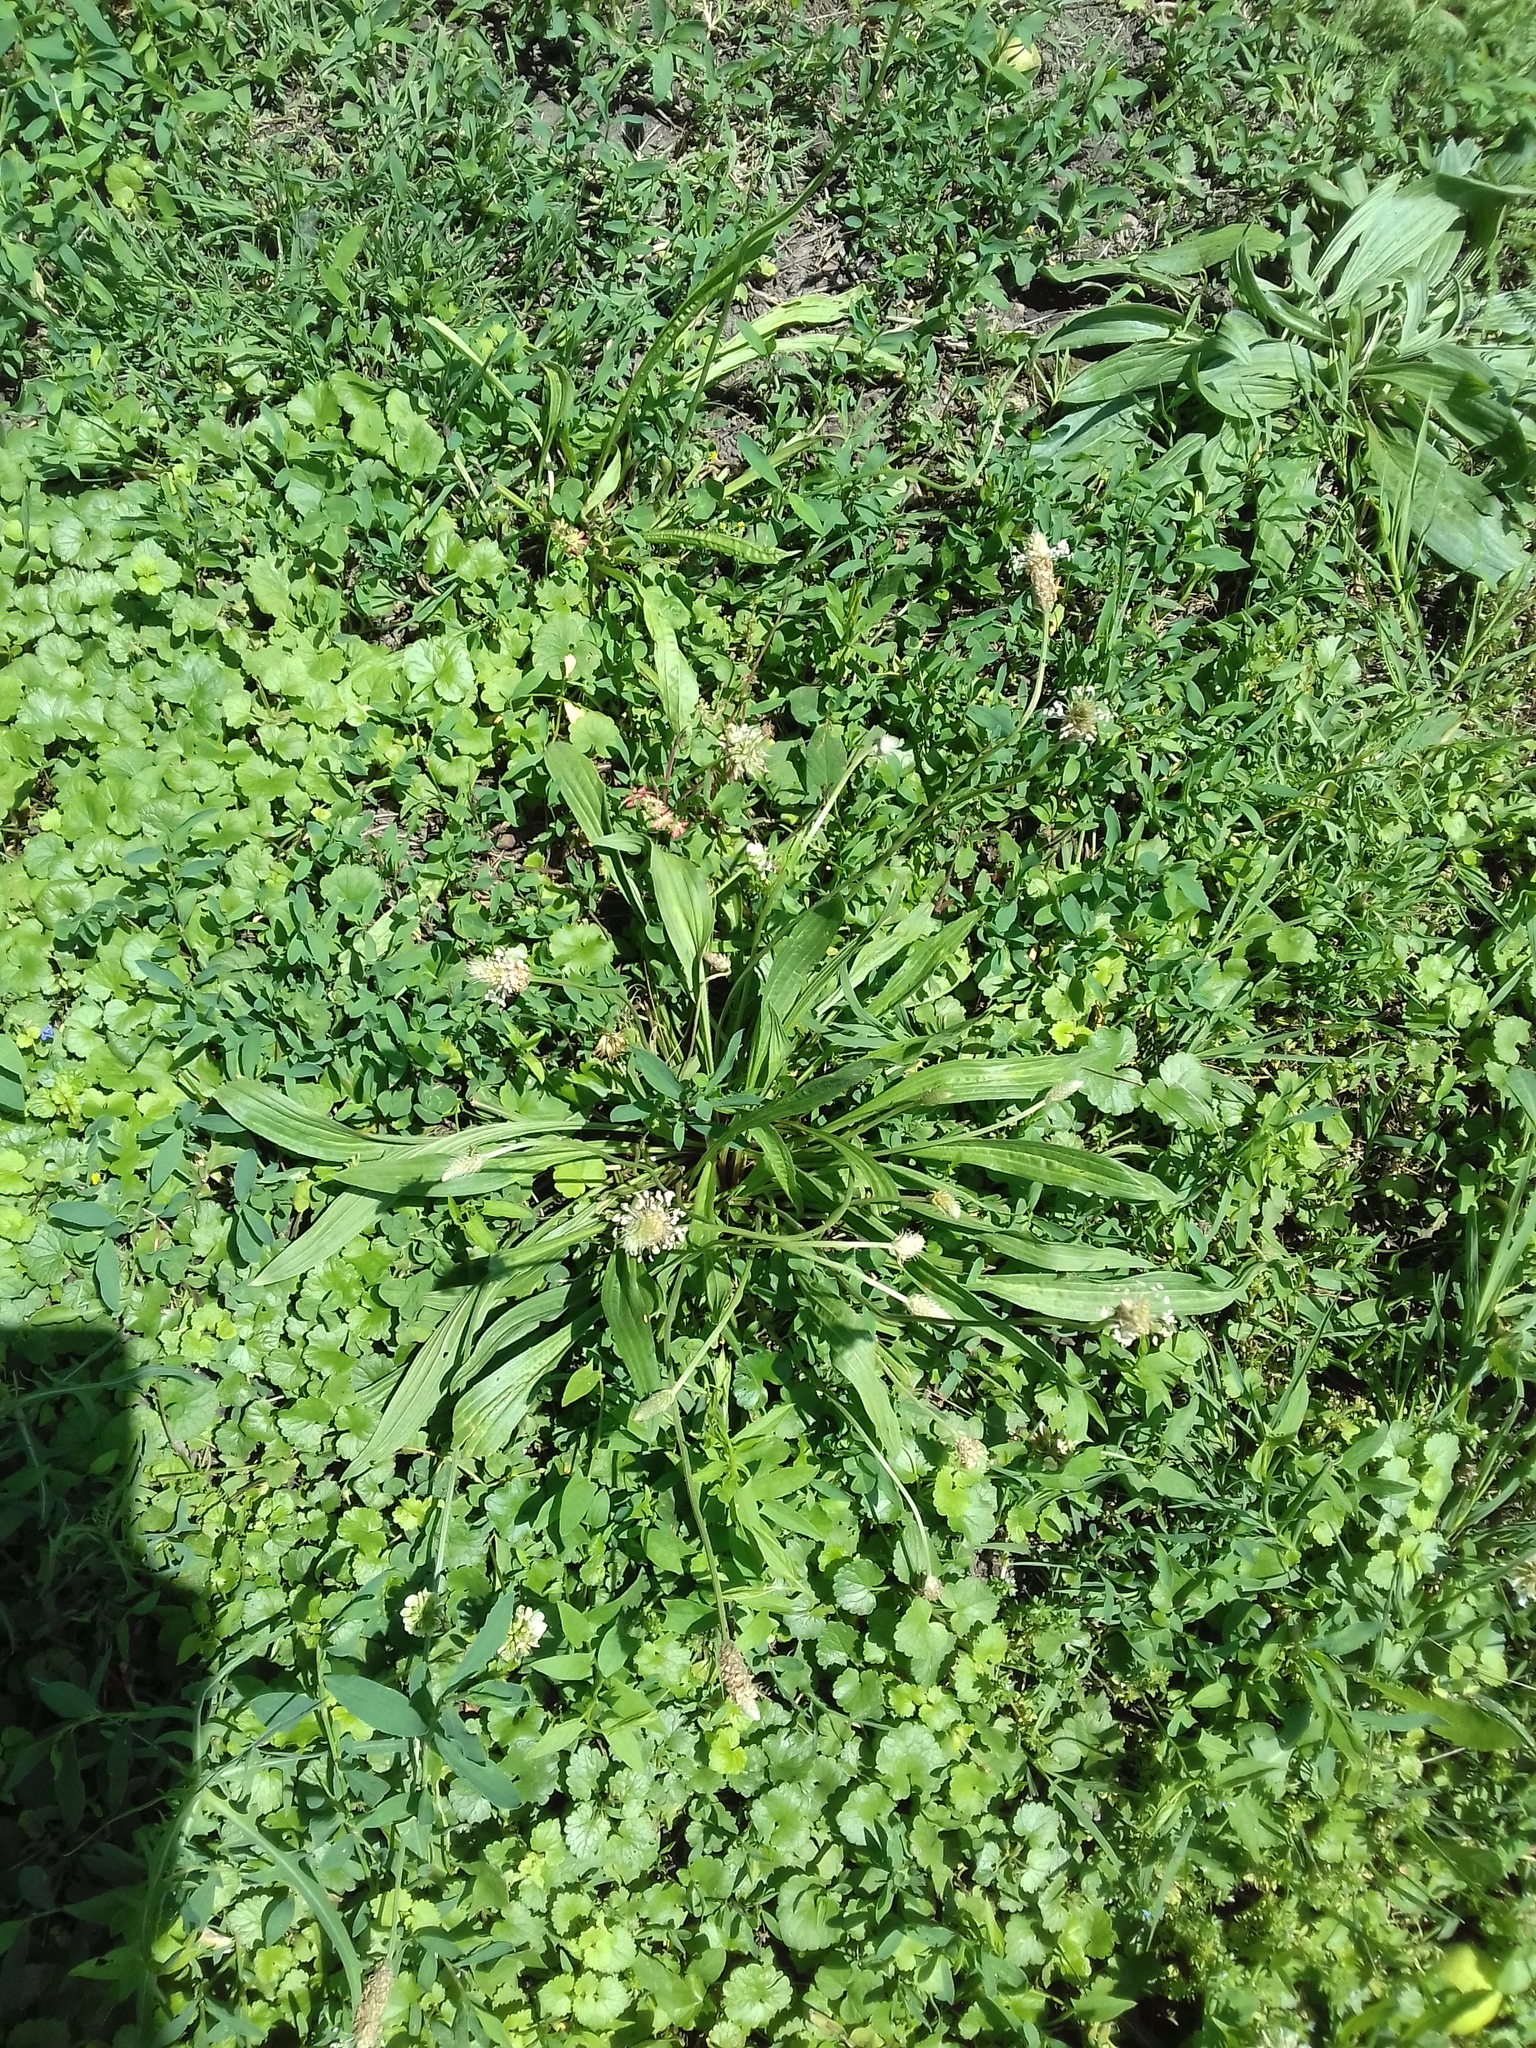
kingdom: Plantae
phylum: Tracheophyta
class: Magnoliopsida
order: Lamiales
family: Plantaginaceae
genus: Plantago
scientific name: Plantago lanceolata
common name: Ribwort plantain
